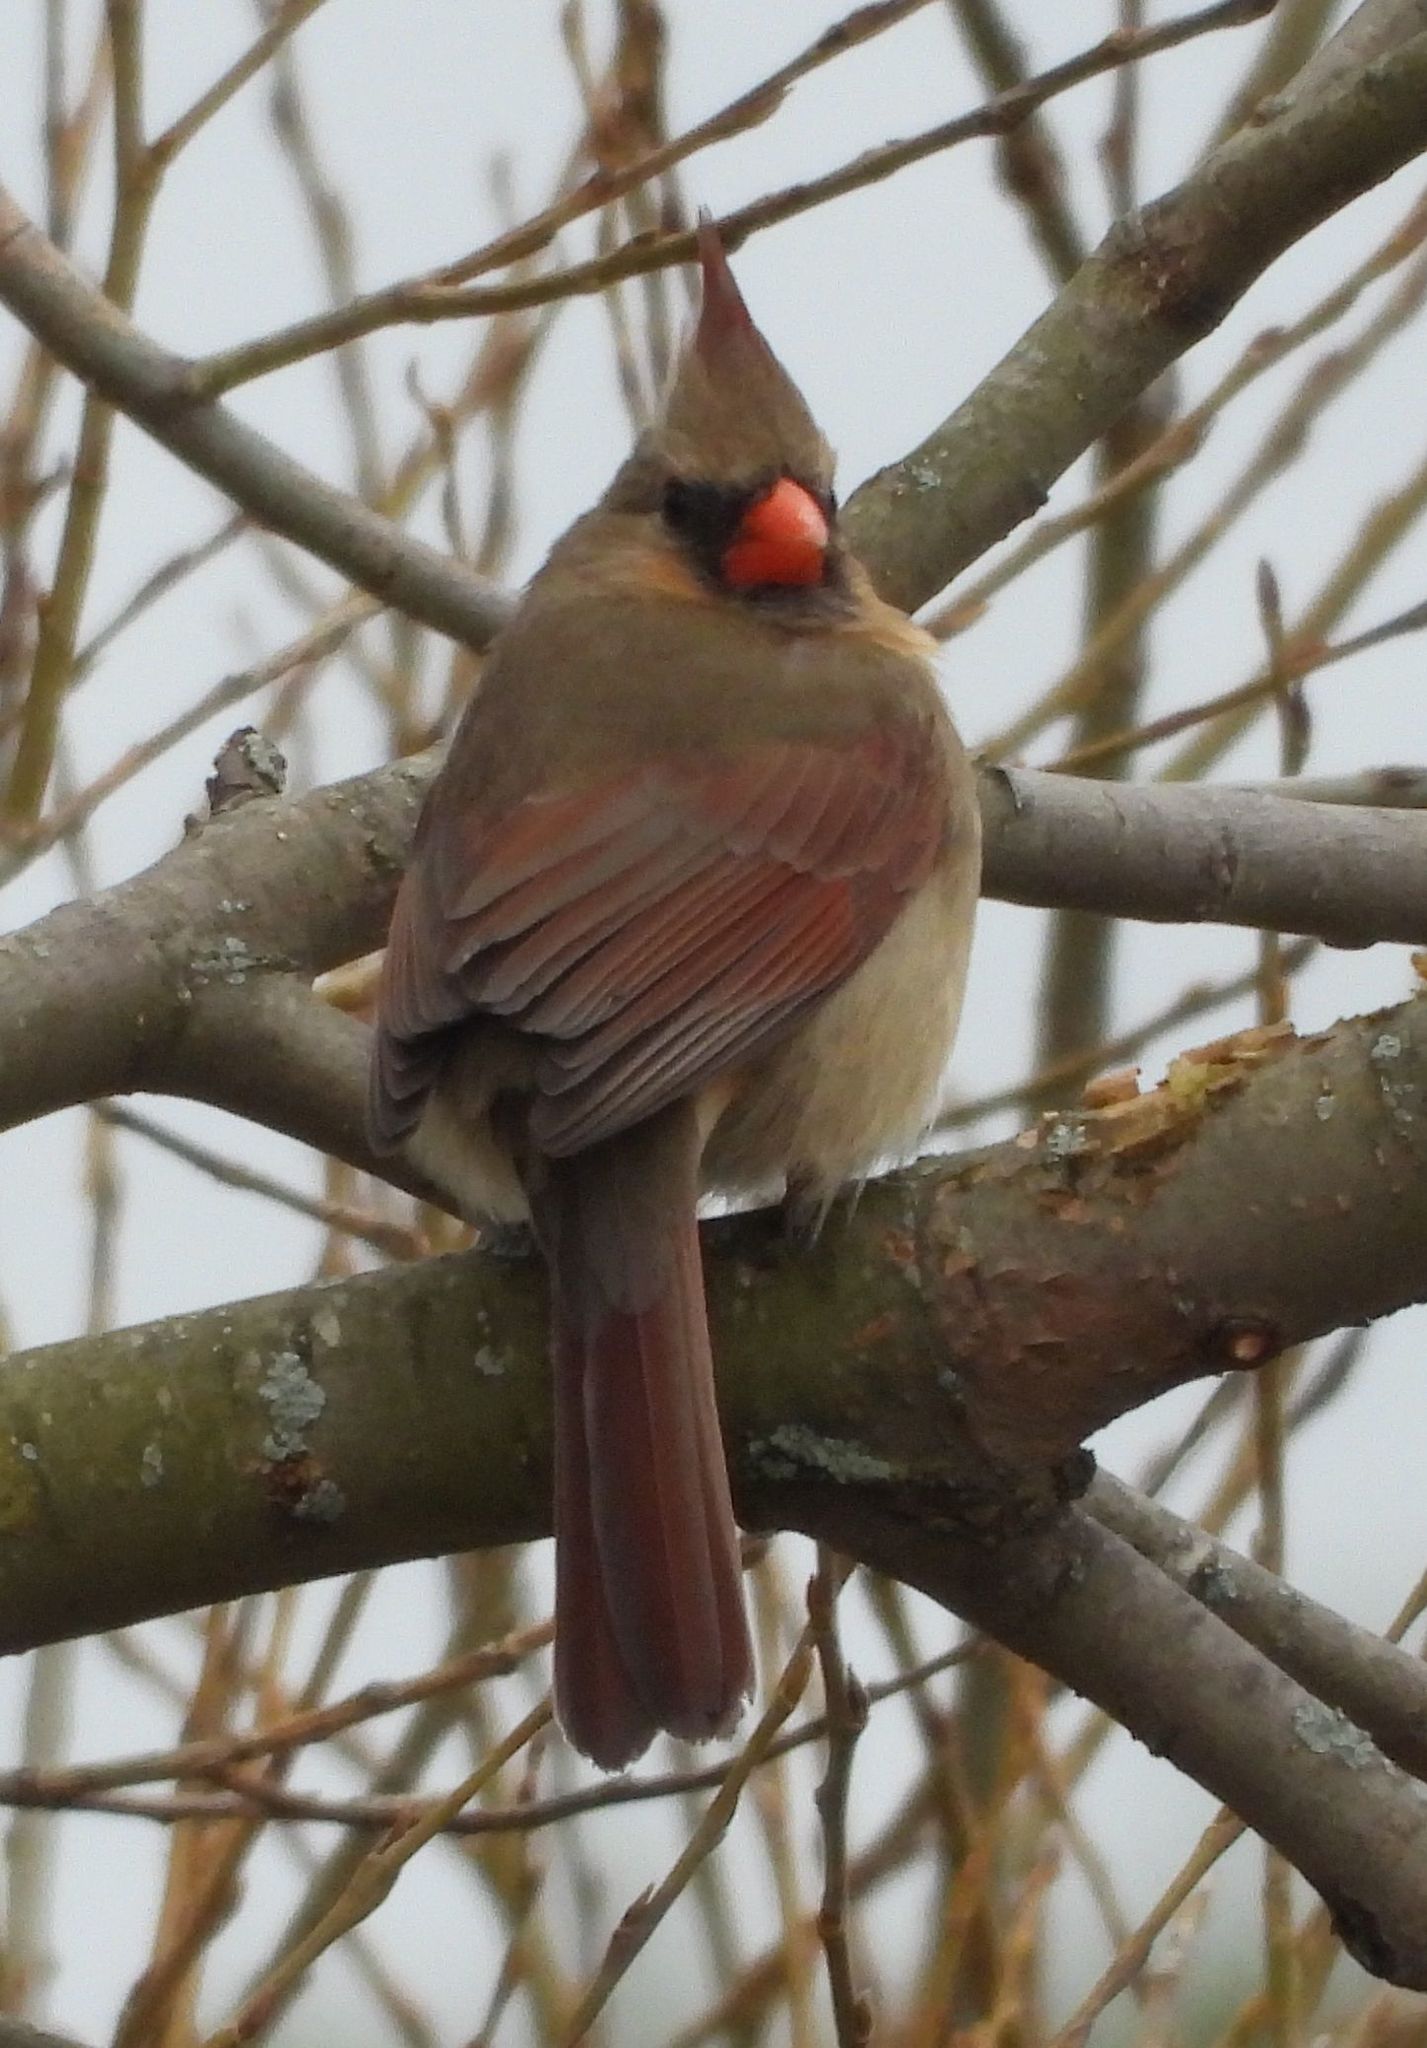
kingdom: Animalia
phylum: Chordata
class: Aves
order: Passeriformes
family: Cardinalidae
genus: Cardinalis
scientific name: Cardinalis cardinalis
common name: Northern cardinal
